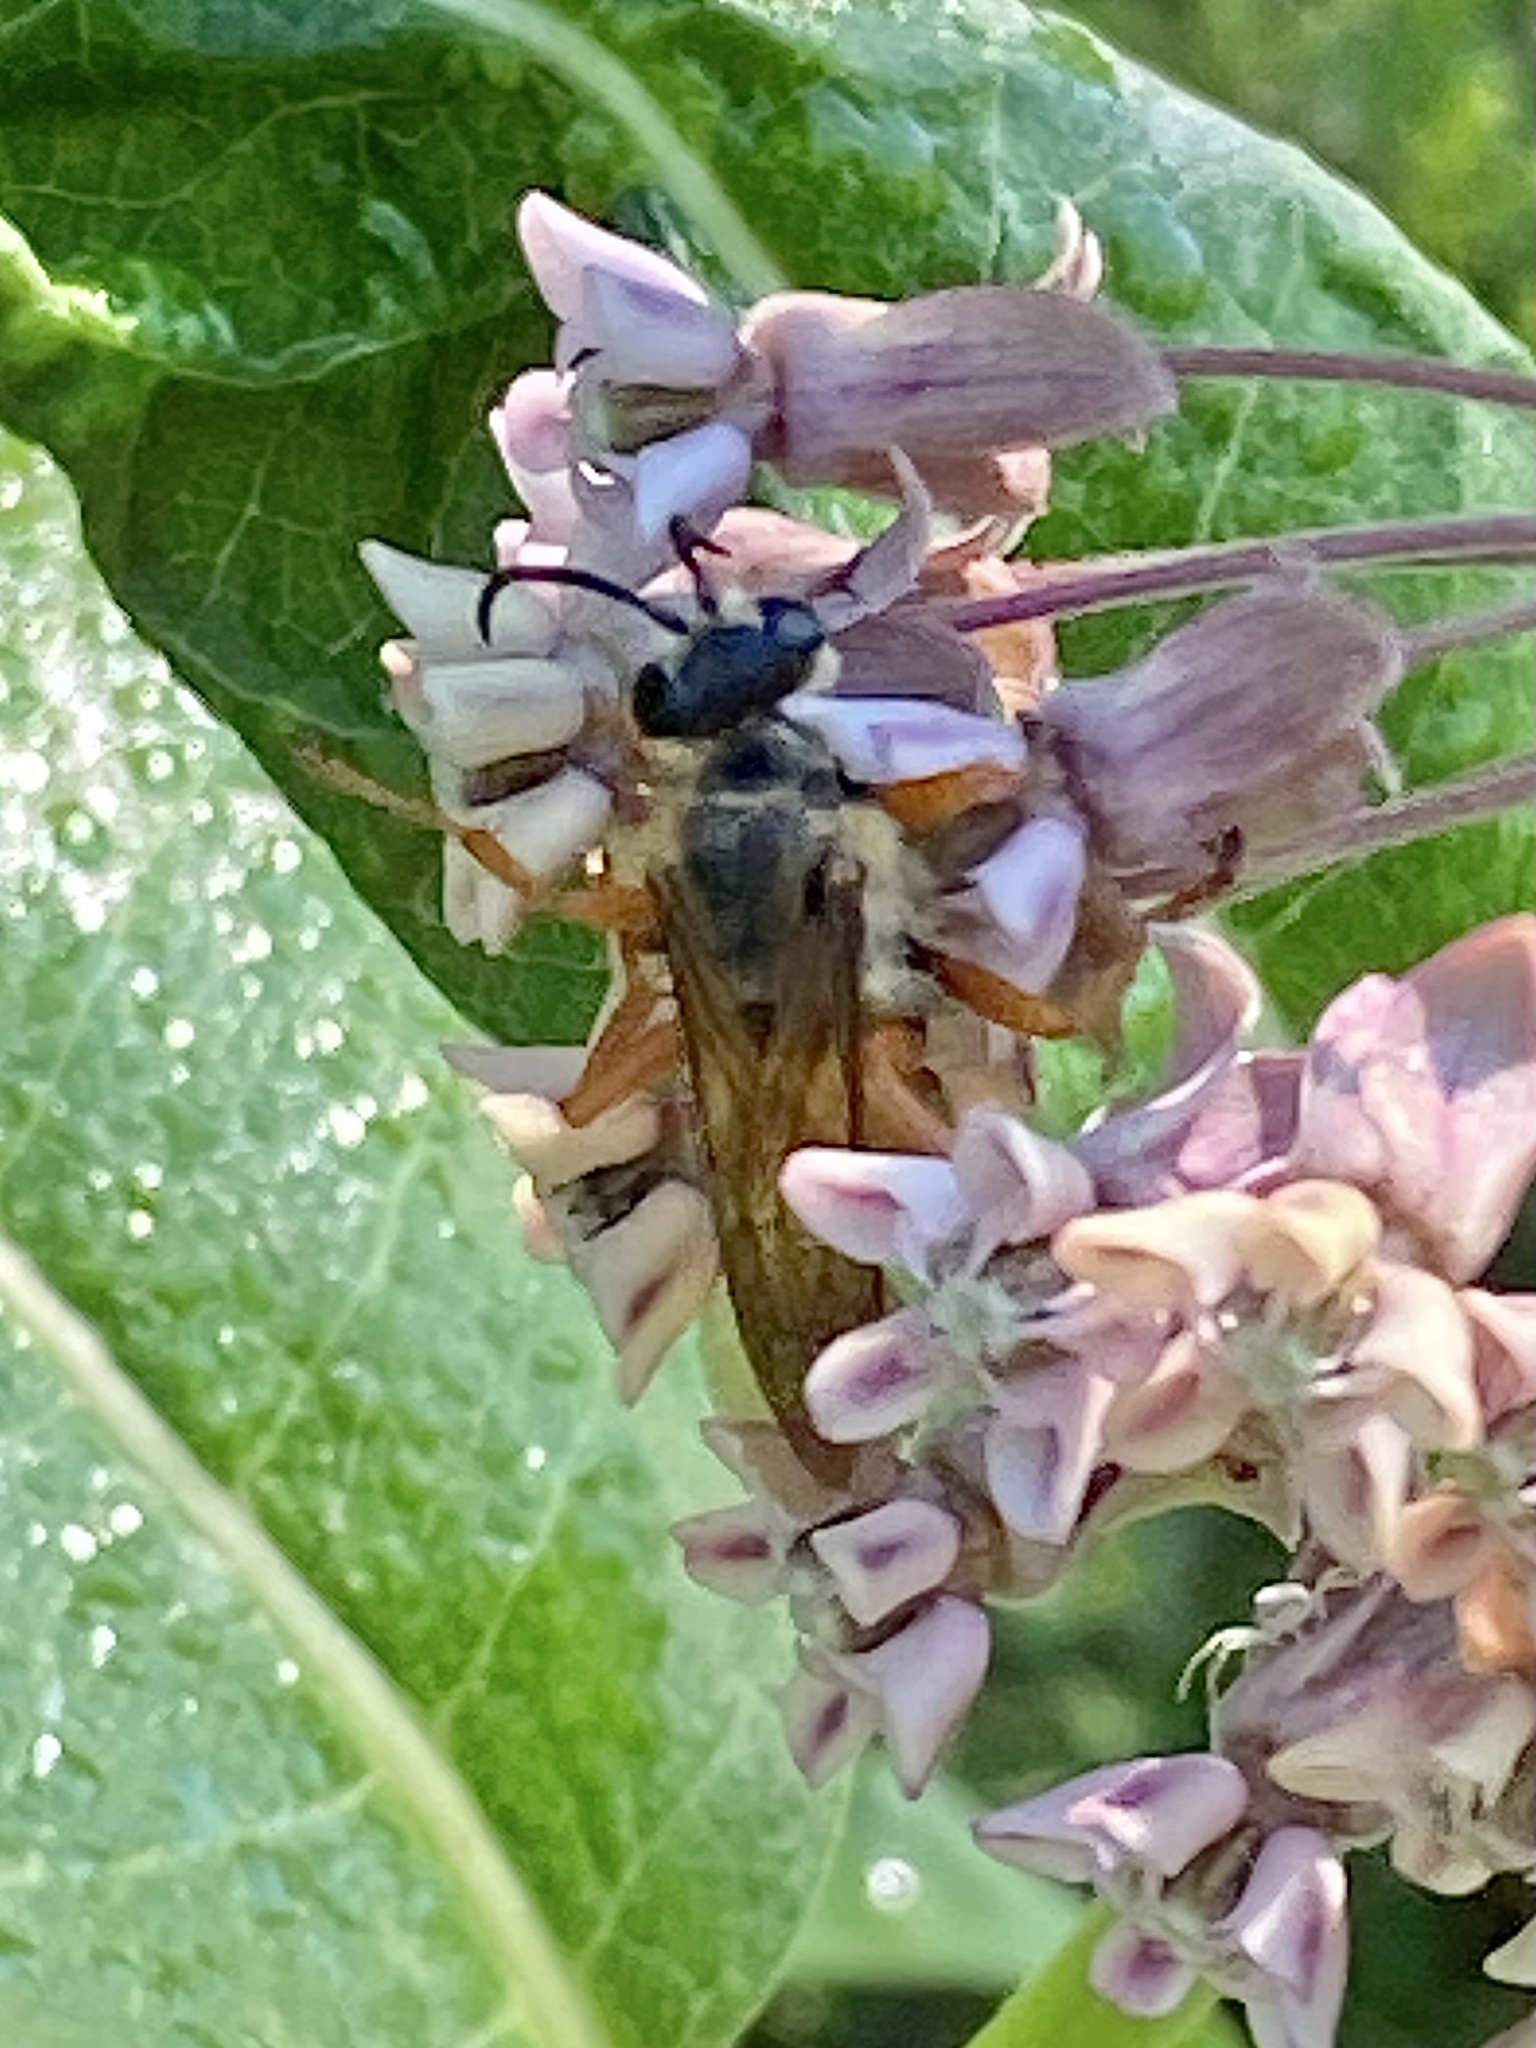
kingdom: Animalia
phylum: Arthropoda
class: Insecta
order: Hymenoptera
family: Sphecidae
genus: Sphex
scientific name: Sphex ichneumoneus
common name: Great golden digger wasp
